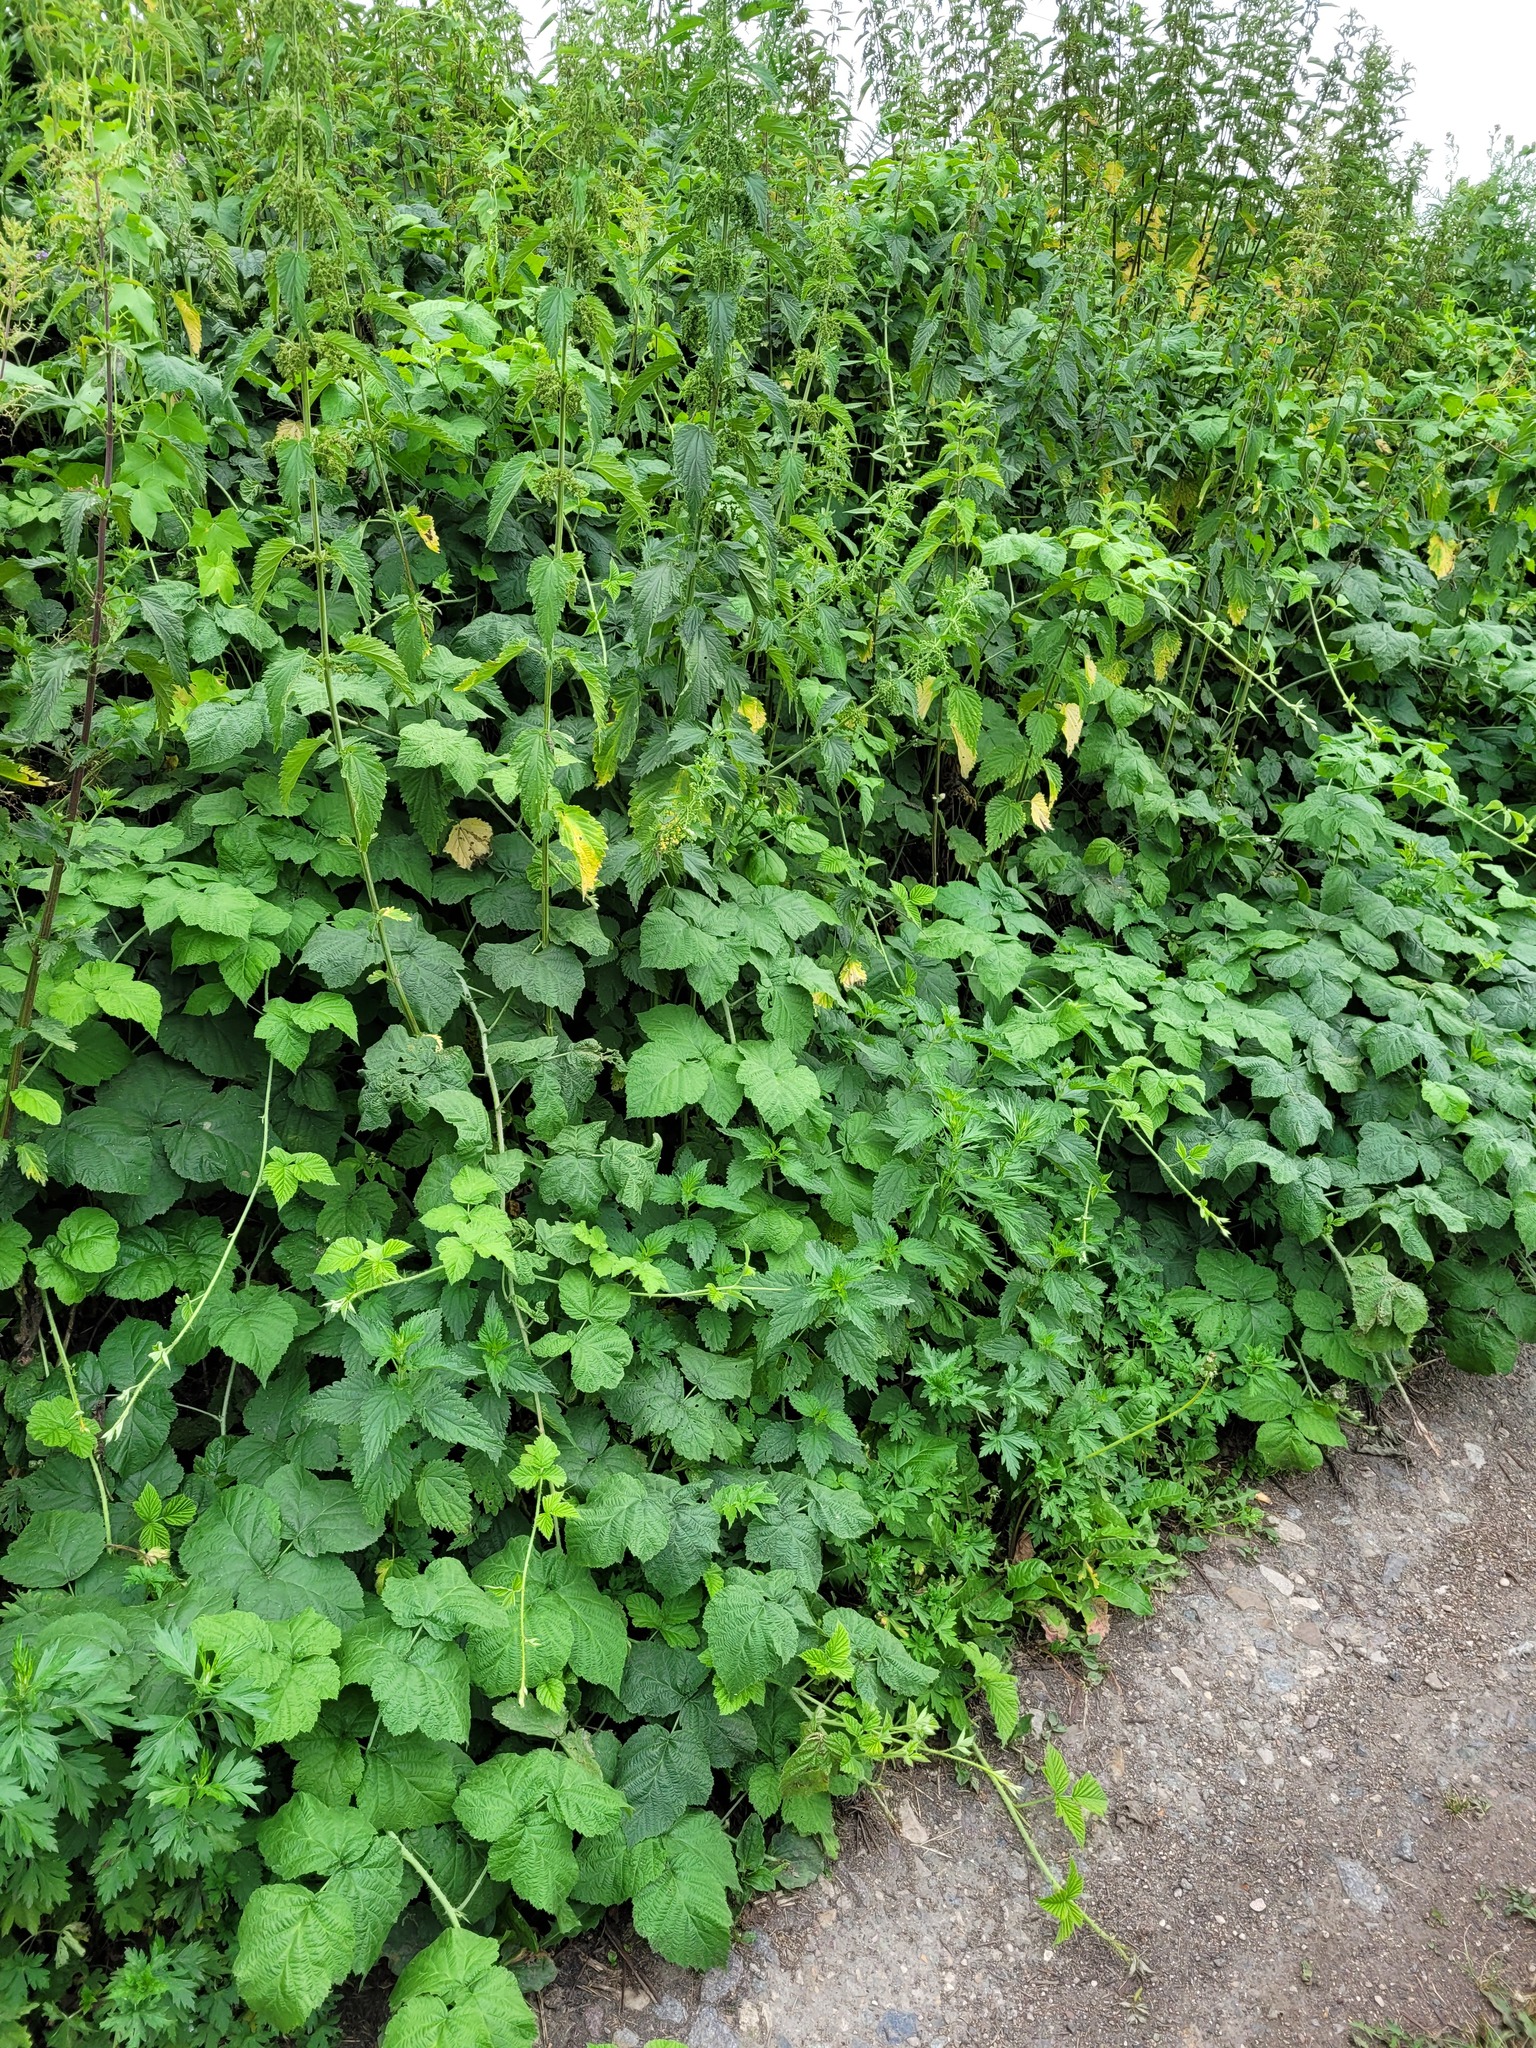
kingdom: Plantae
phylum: Tracheophyta
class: Magnoliopsida
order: Rosales
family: Rosaceae
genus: Rubus
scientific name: Rubus caesius
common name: Dewberry
